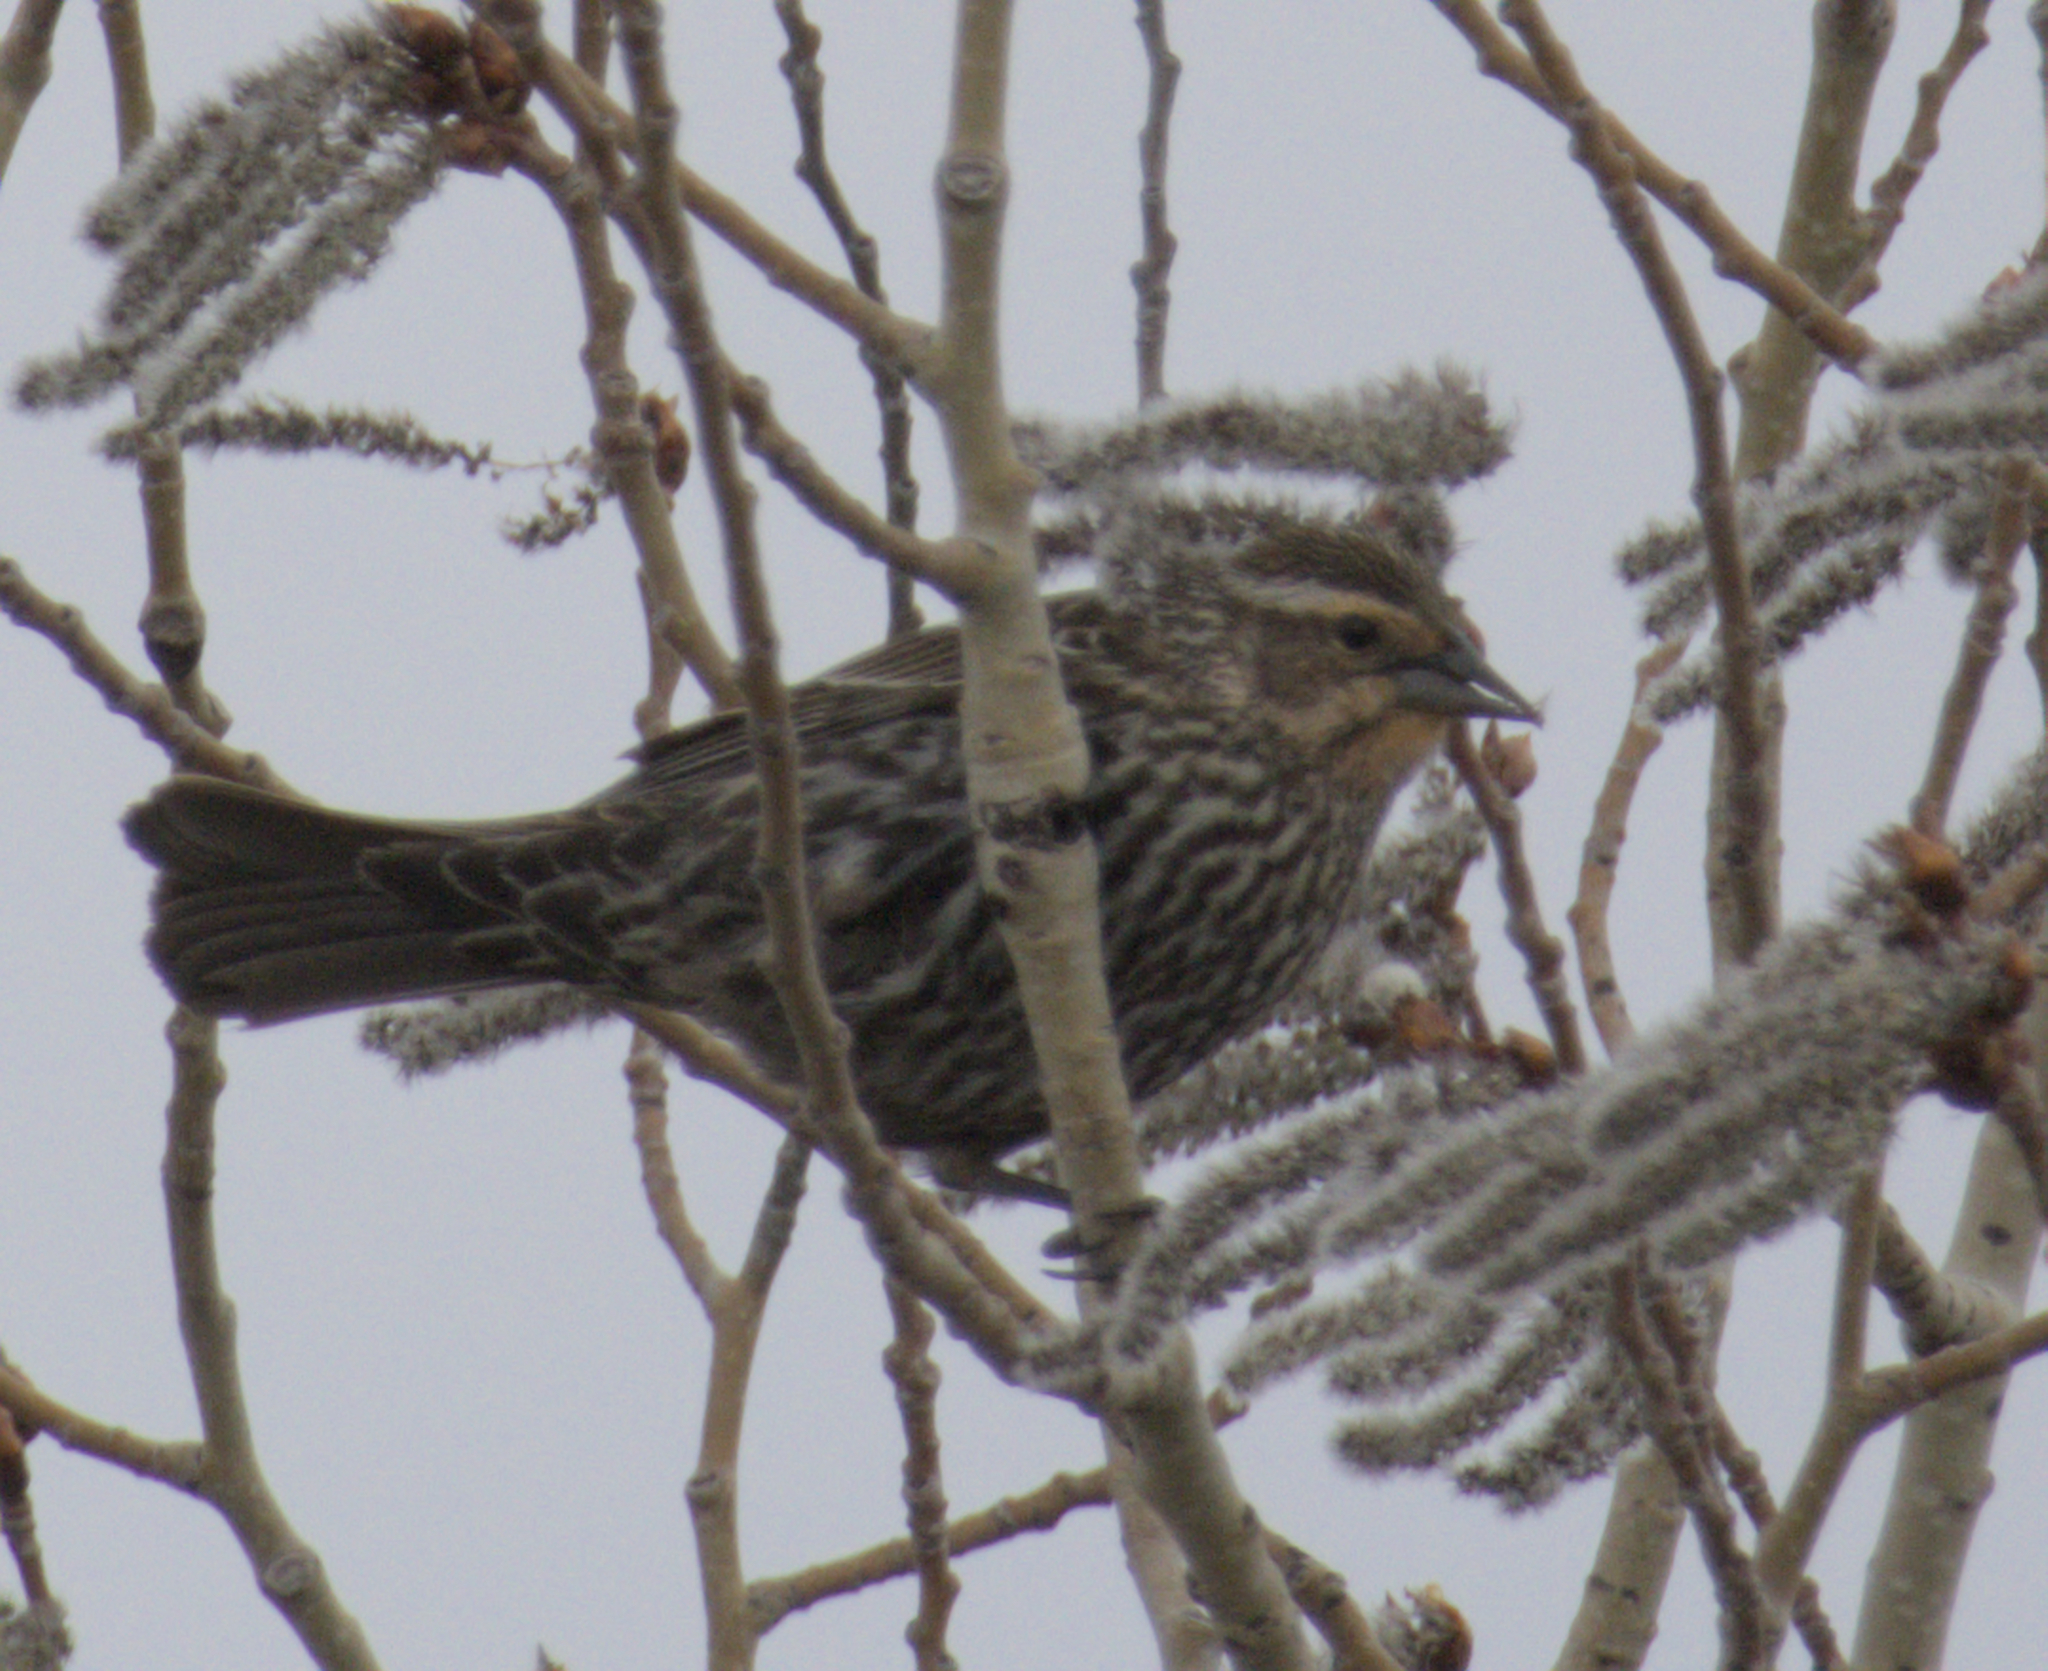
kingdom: Animalia
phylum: Chordata
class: Aves
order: Passeriformes
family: Icteridae
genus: Agelaius
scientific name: Agelaius phoeniceus
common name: Red-winged blackbird
